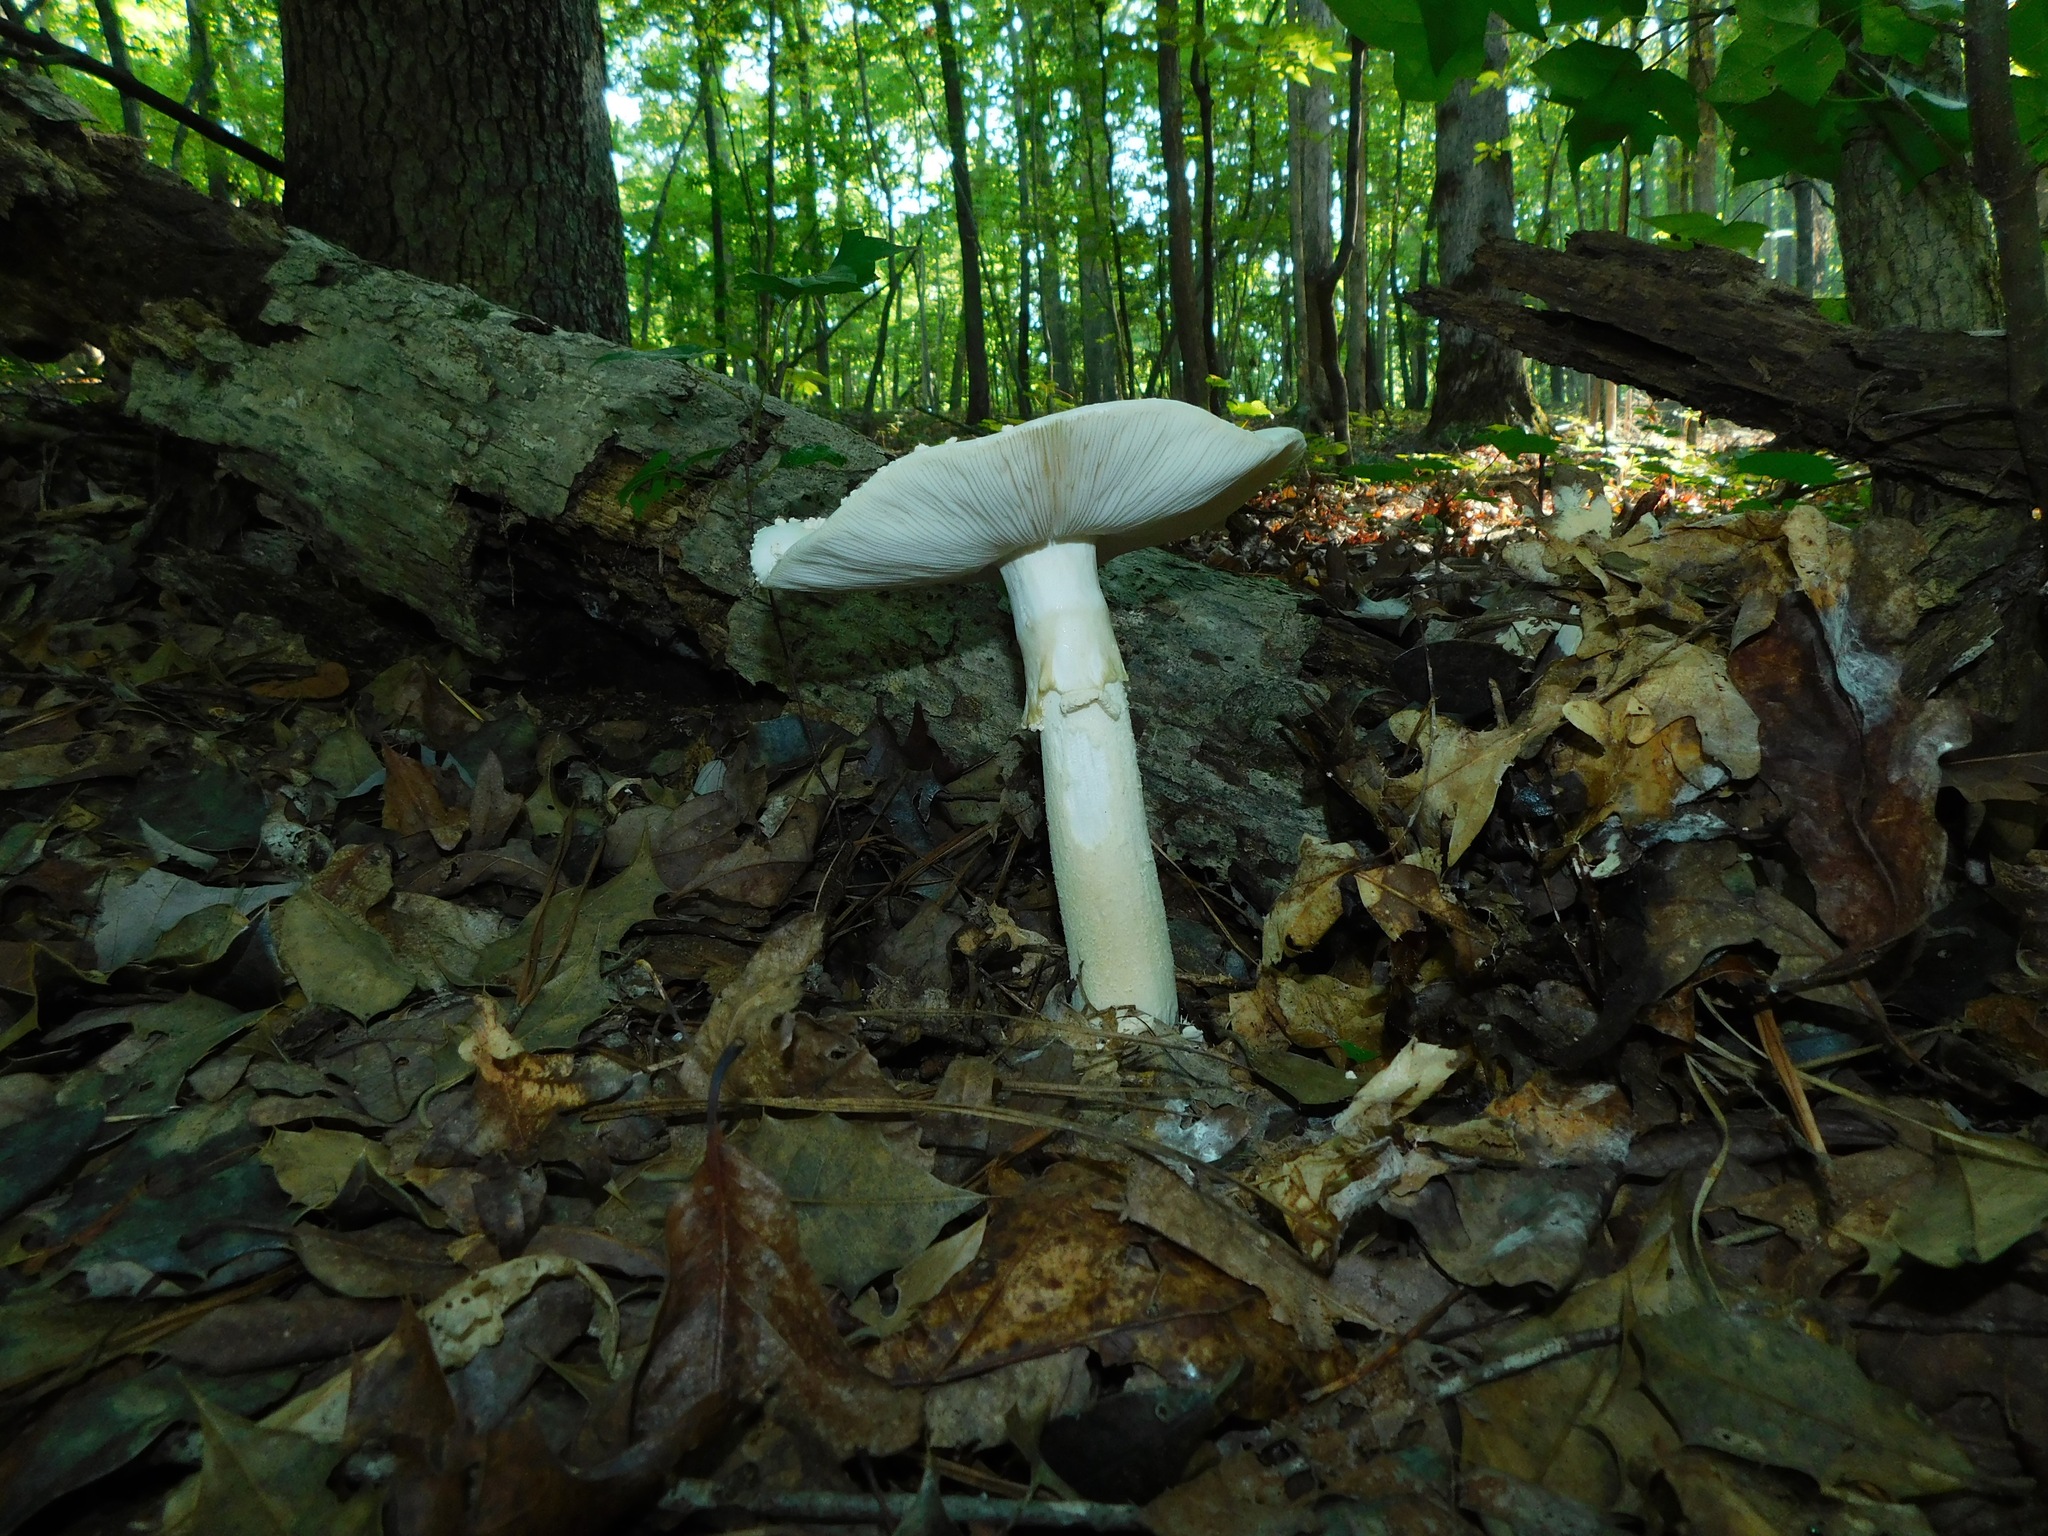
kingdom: Fungi
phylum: Basidiomycota
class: Agaricomycetes
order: Agaricales
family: Amanitaceae
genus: Amanita
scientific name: Amanita elliptosperma
